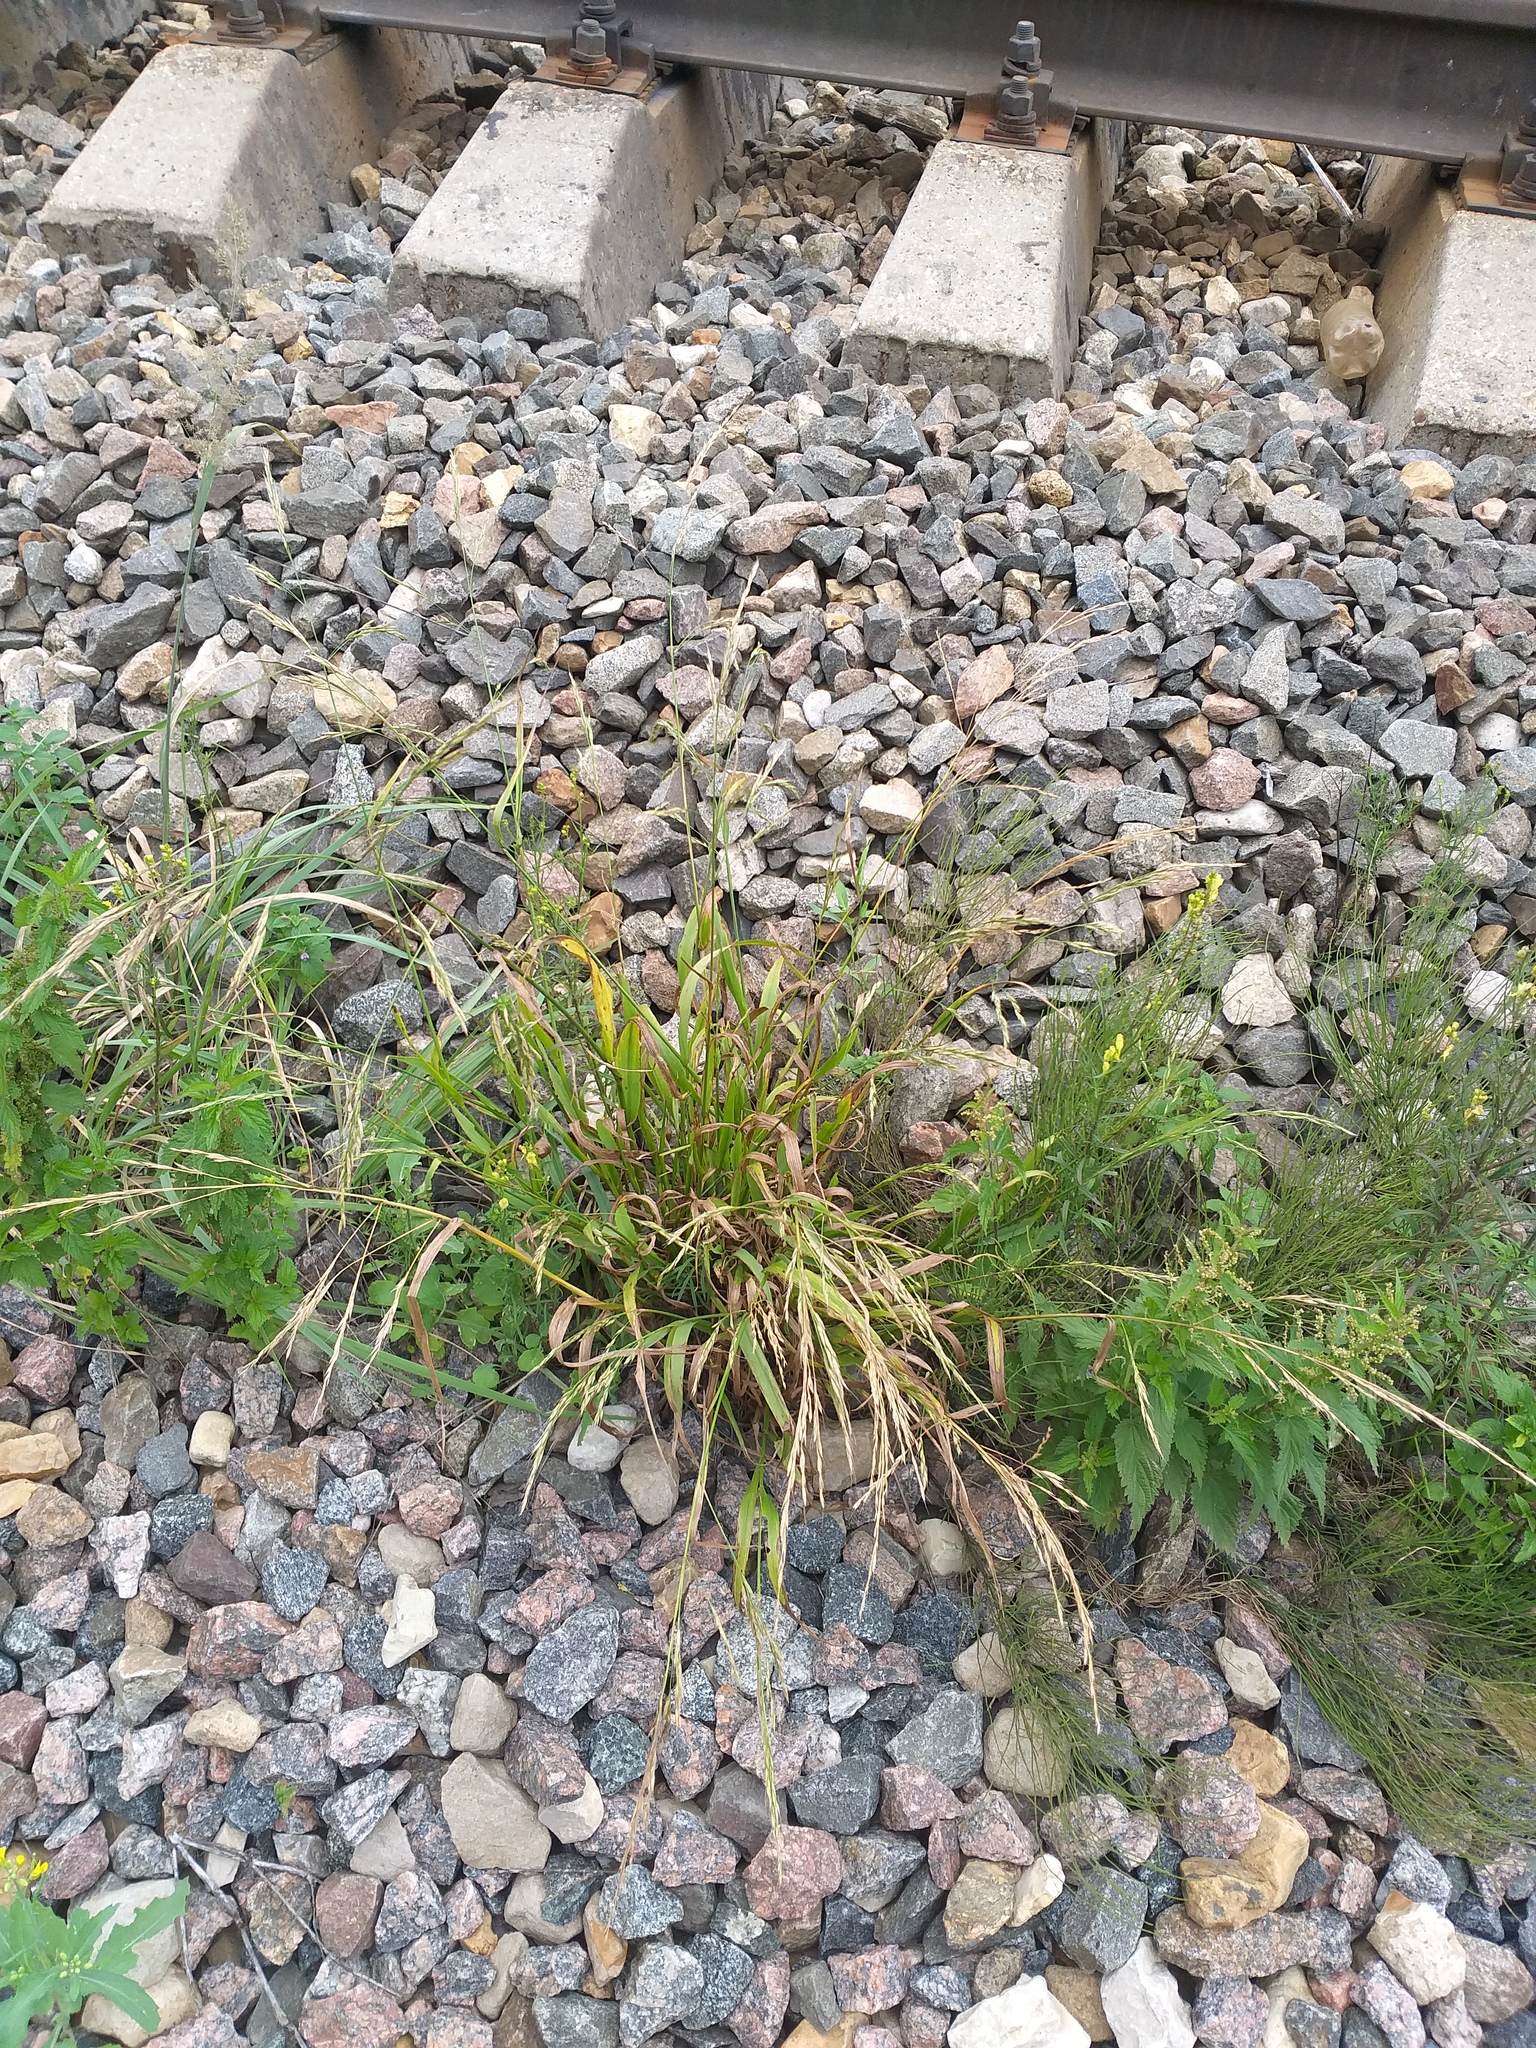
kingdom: Plantae
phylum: Tracheophyta
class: Liliopsida
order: Poales
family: Poaceae
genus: Lolium
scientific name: Lolium giganteum
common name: Giant fescue
